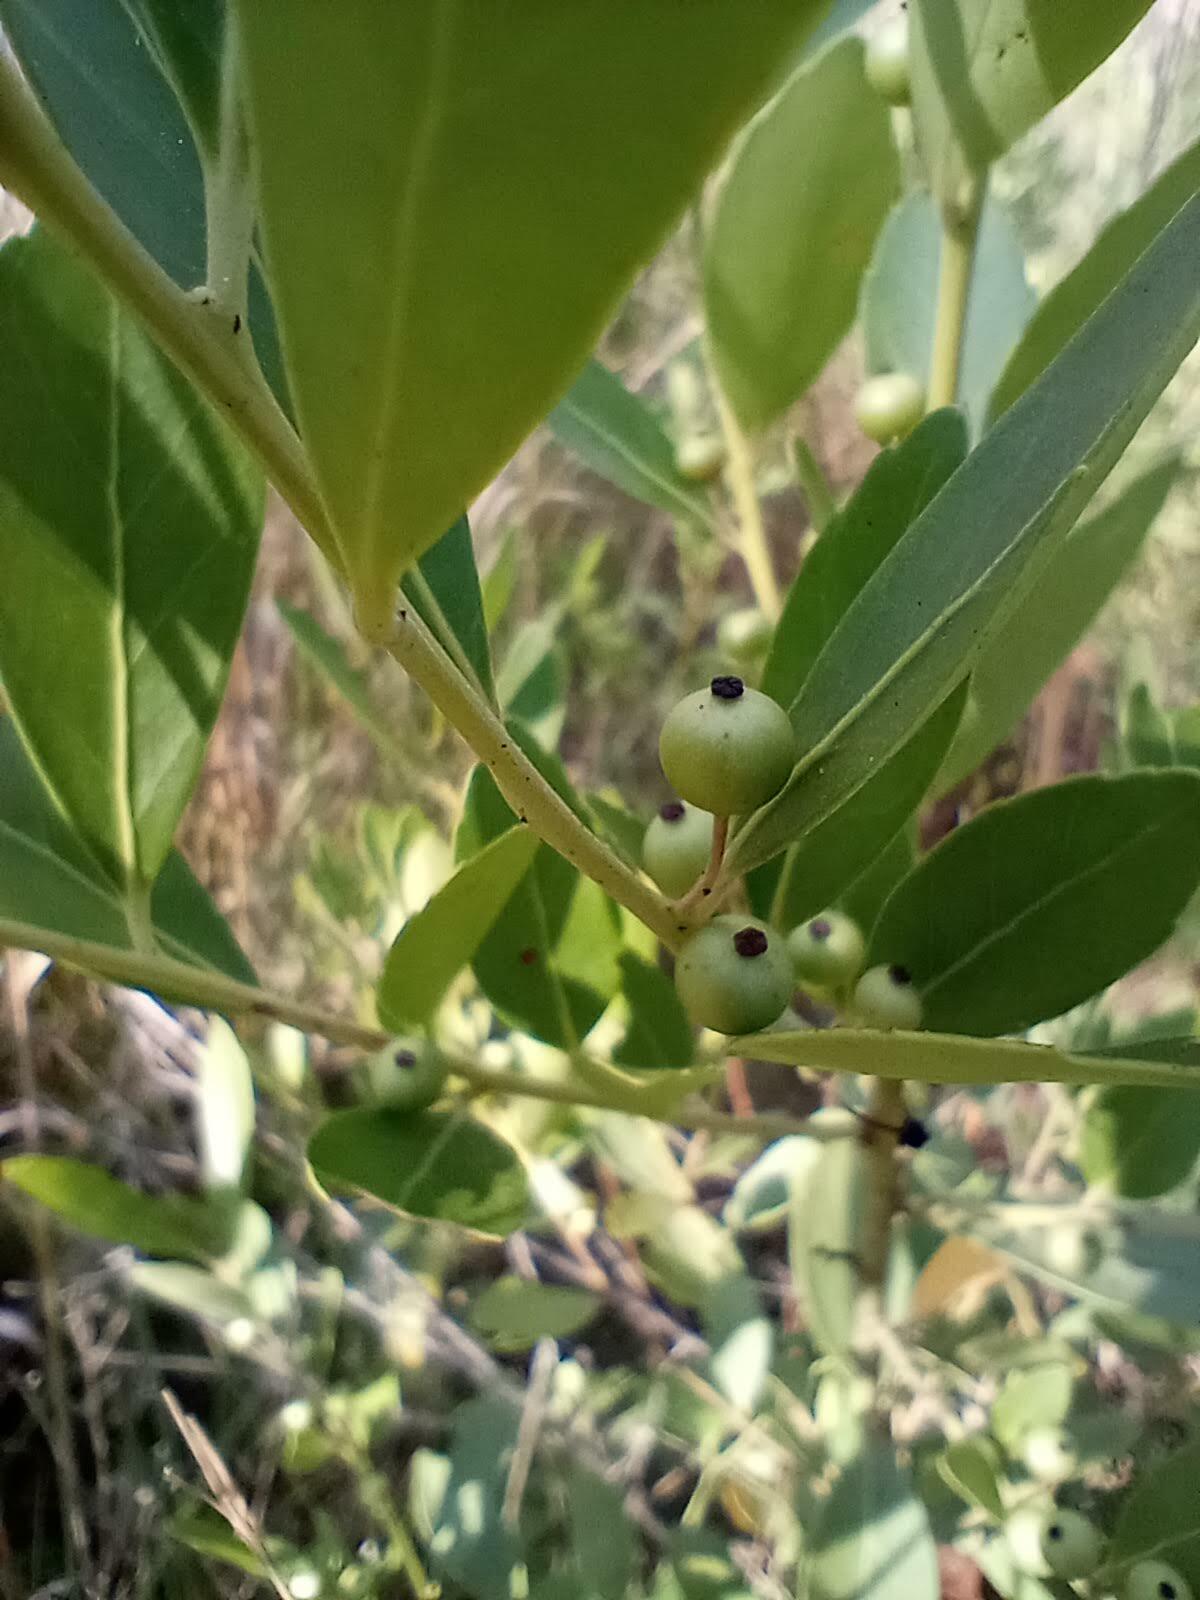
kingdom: Plantae
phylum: Tracheophyta
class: Magnoliopsida
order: Aquifoliales
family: Aquifoliaceae
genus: Ilex
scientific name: Ilex glabra
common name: Bitter gallberry
